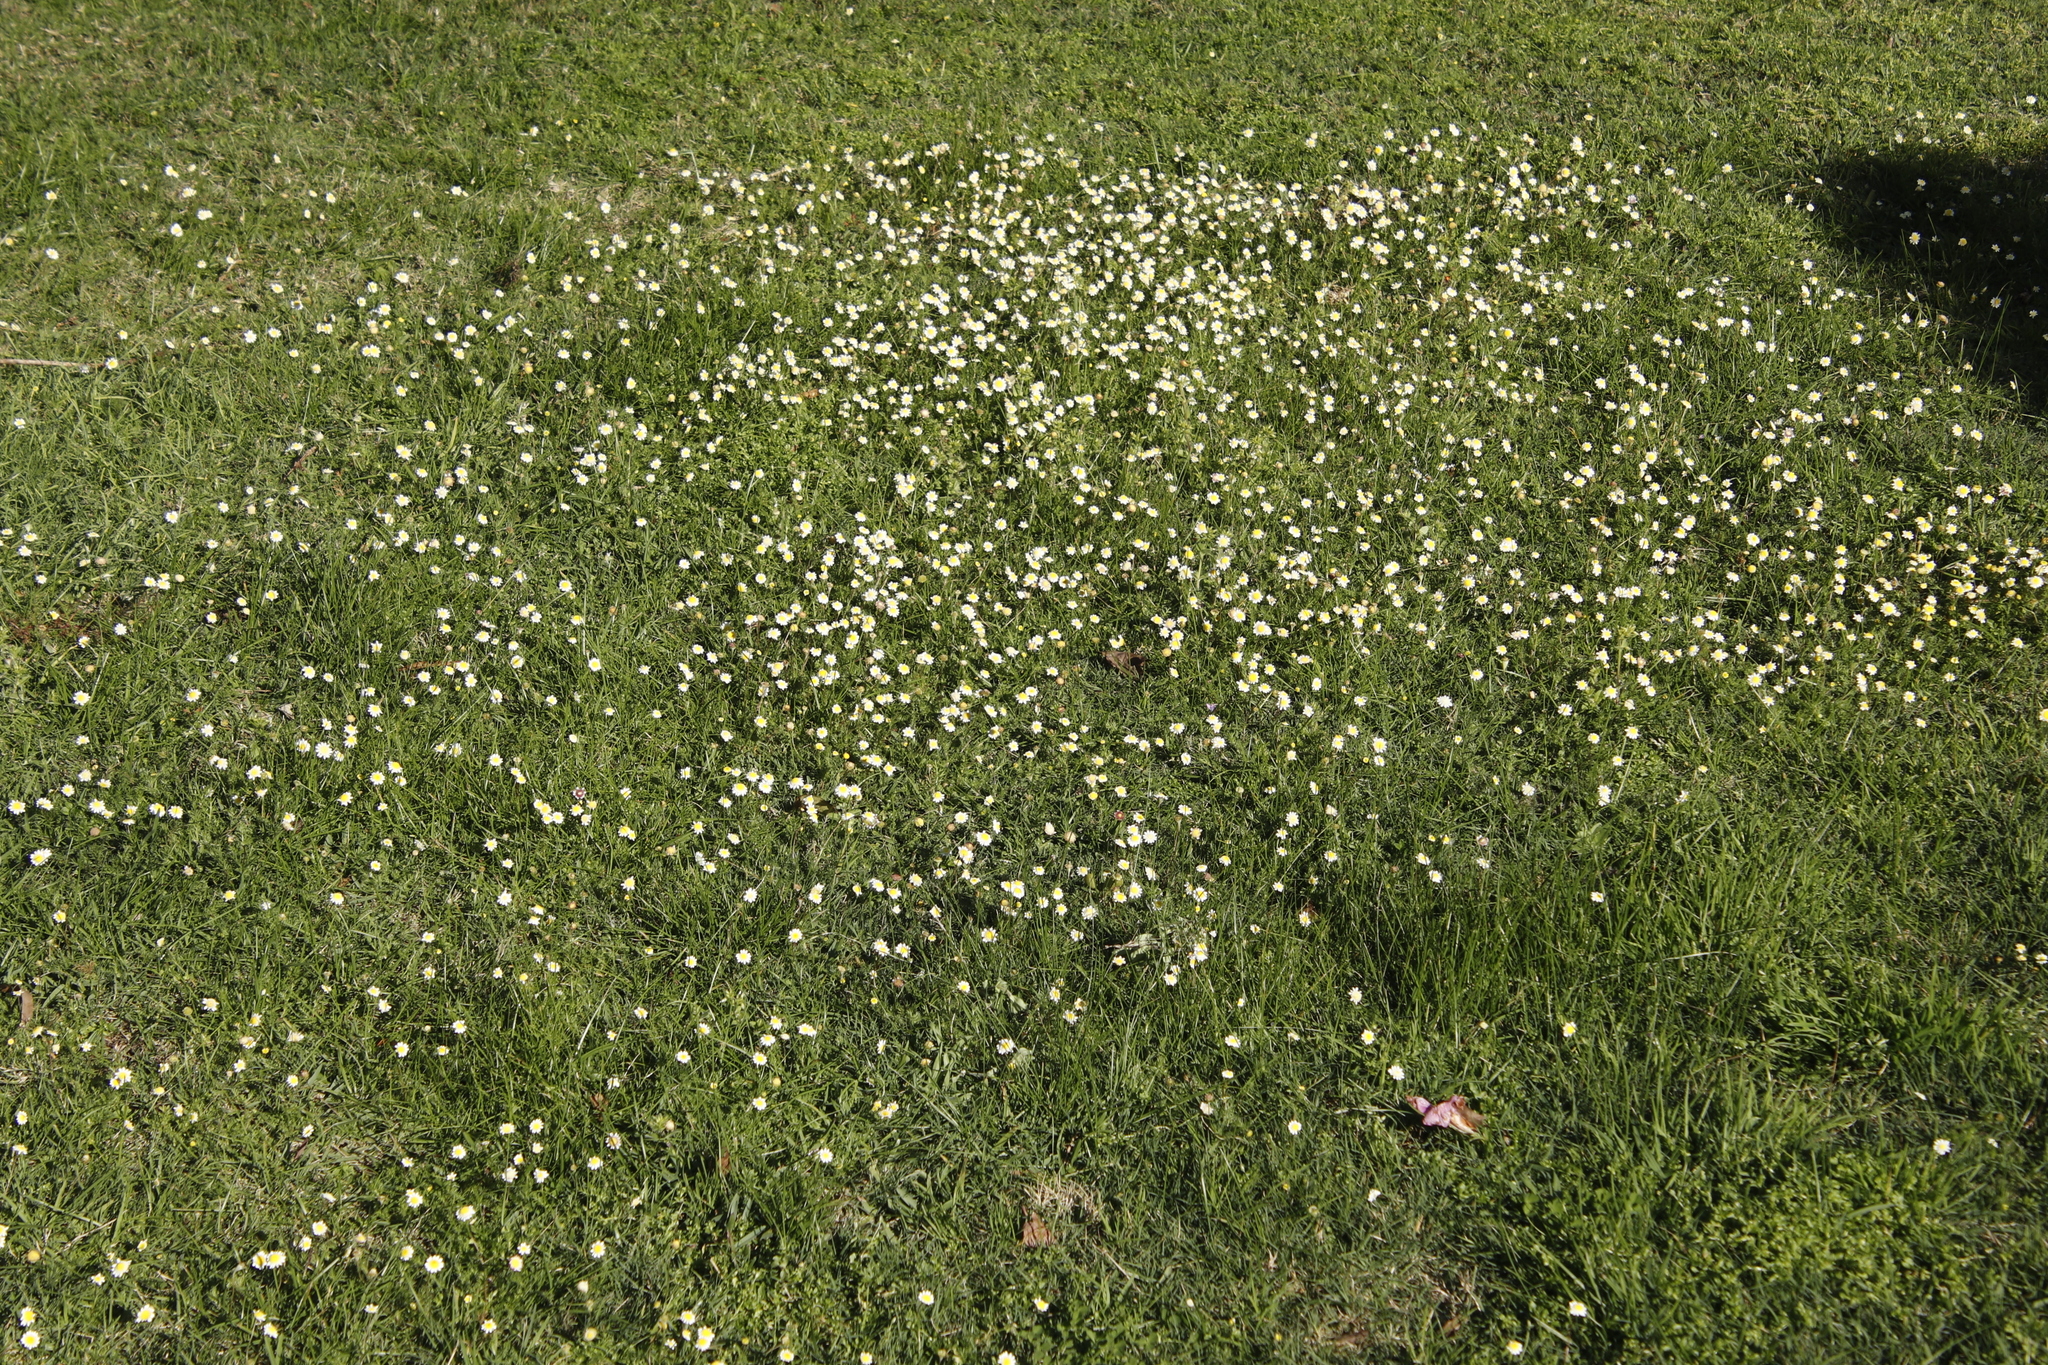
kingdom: Plantae
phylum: Tracheophyta
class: Magnoliopsida
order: Asterales
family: Asteraceae
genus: Cotula
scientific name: Cotula turbinata
